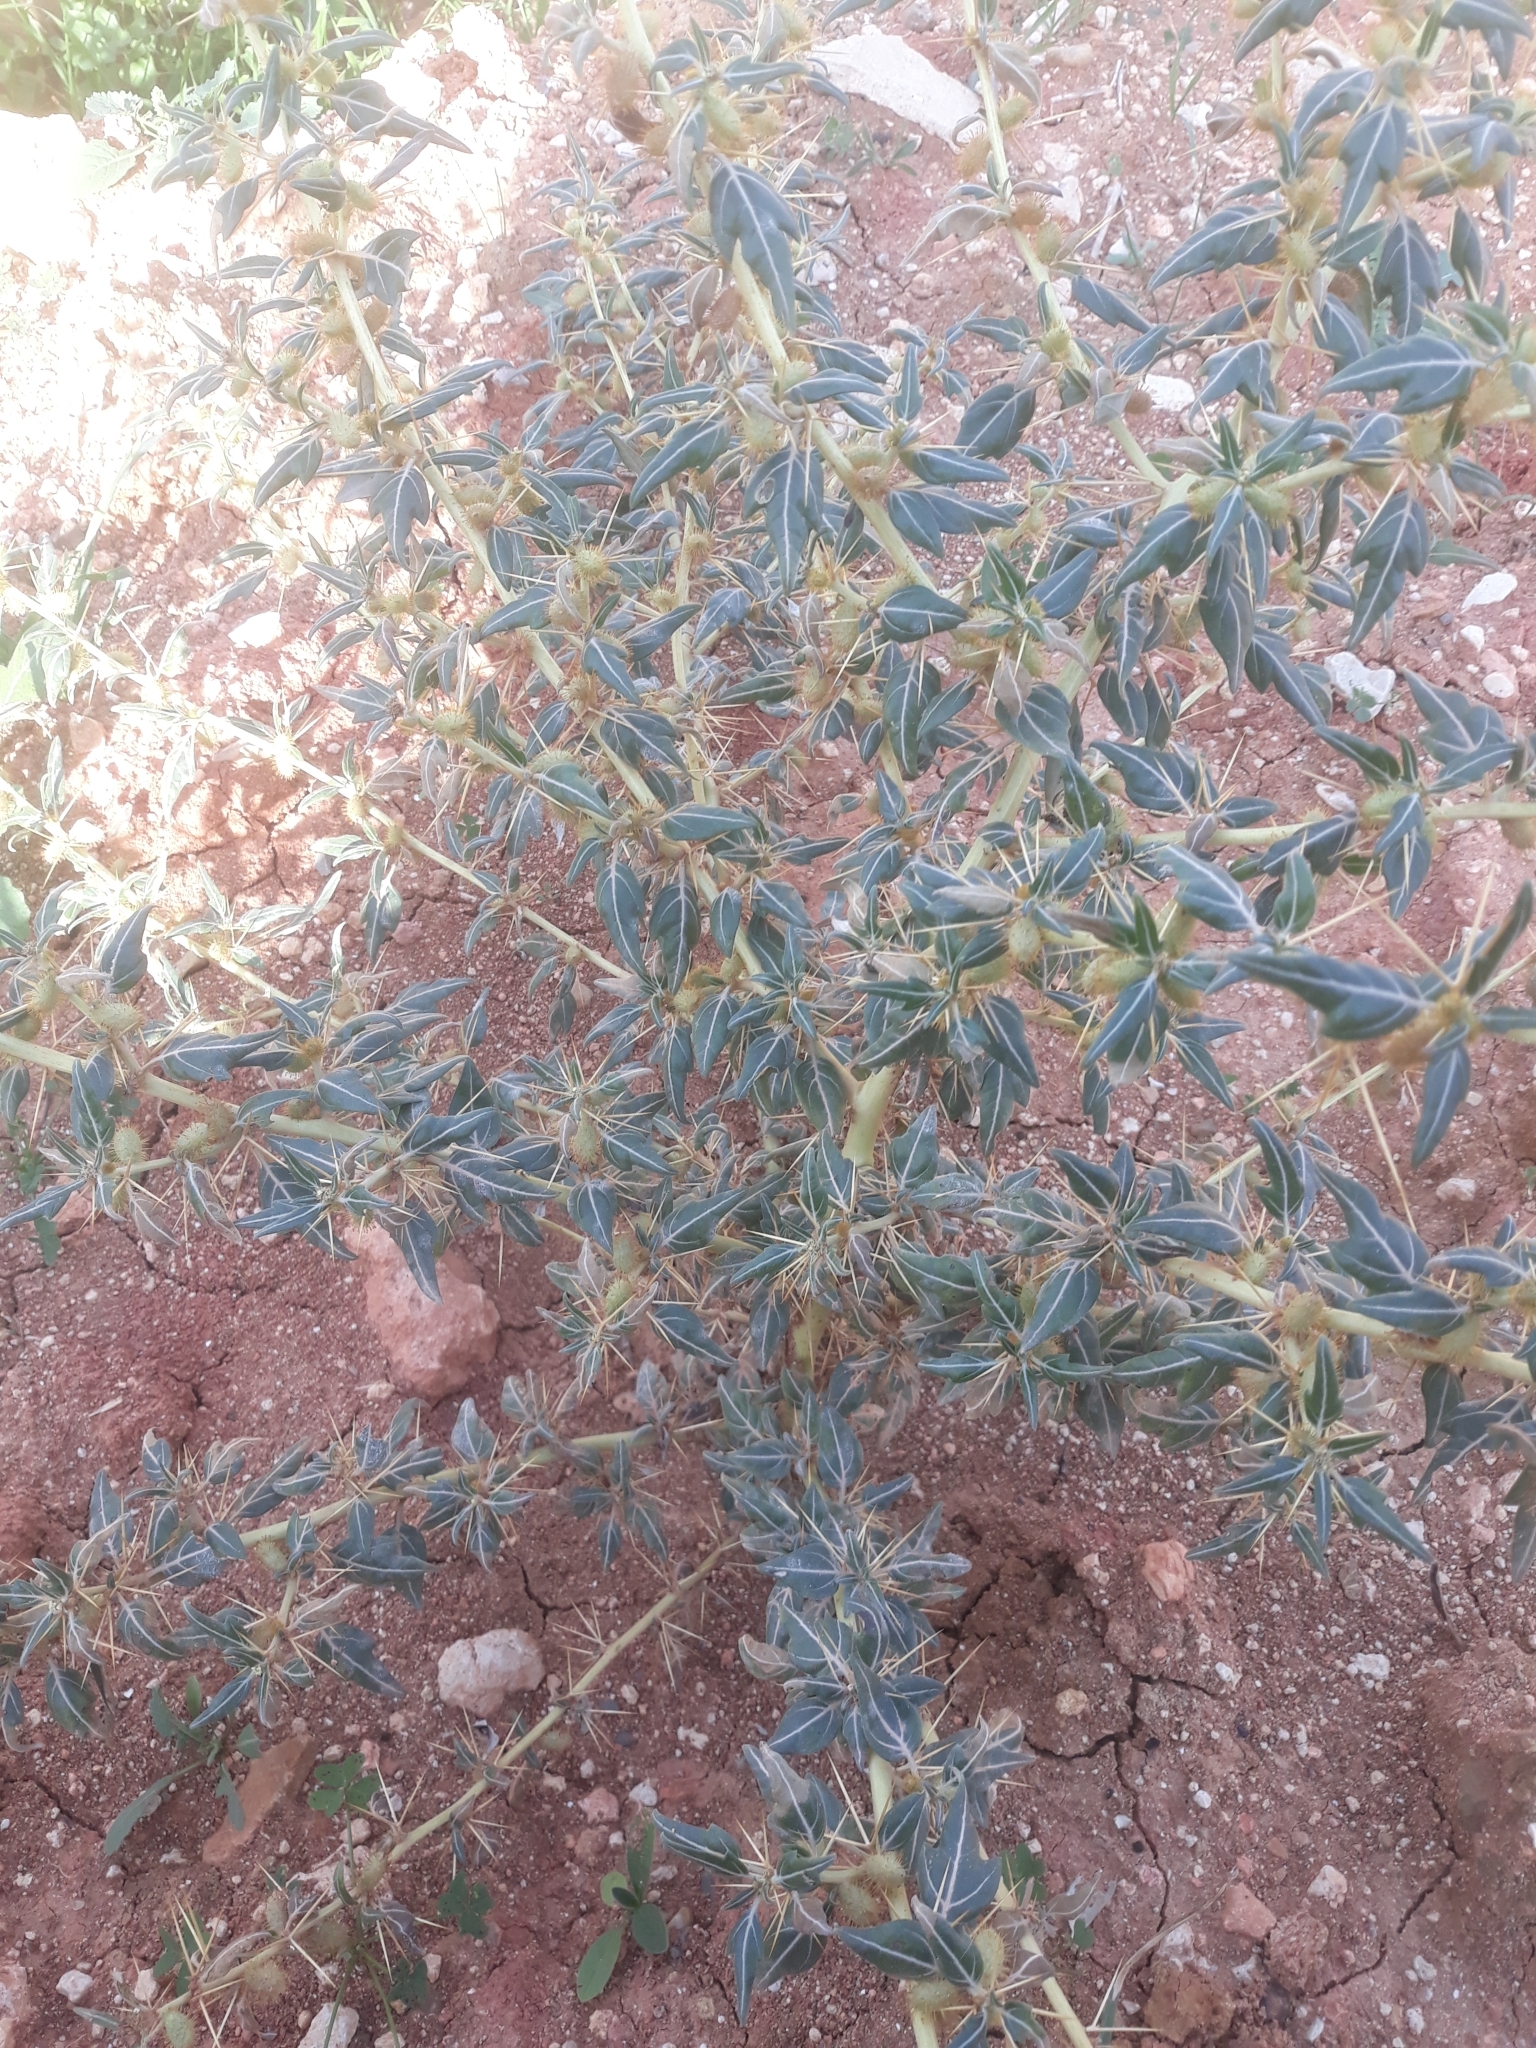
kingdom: Plantae
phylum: Tracheophyta
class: Magnoliopsida
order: Asterales
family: Asteraceae
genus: Xanthium
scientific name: Xanthium spinosum
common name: Spiny cocklebur
